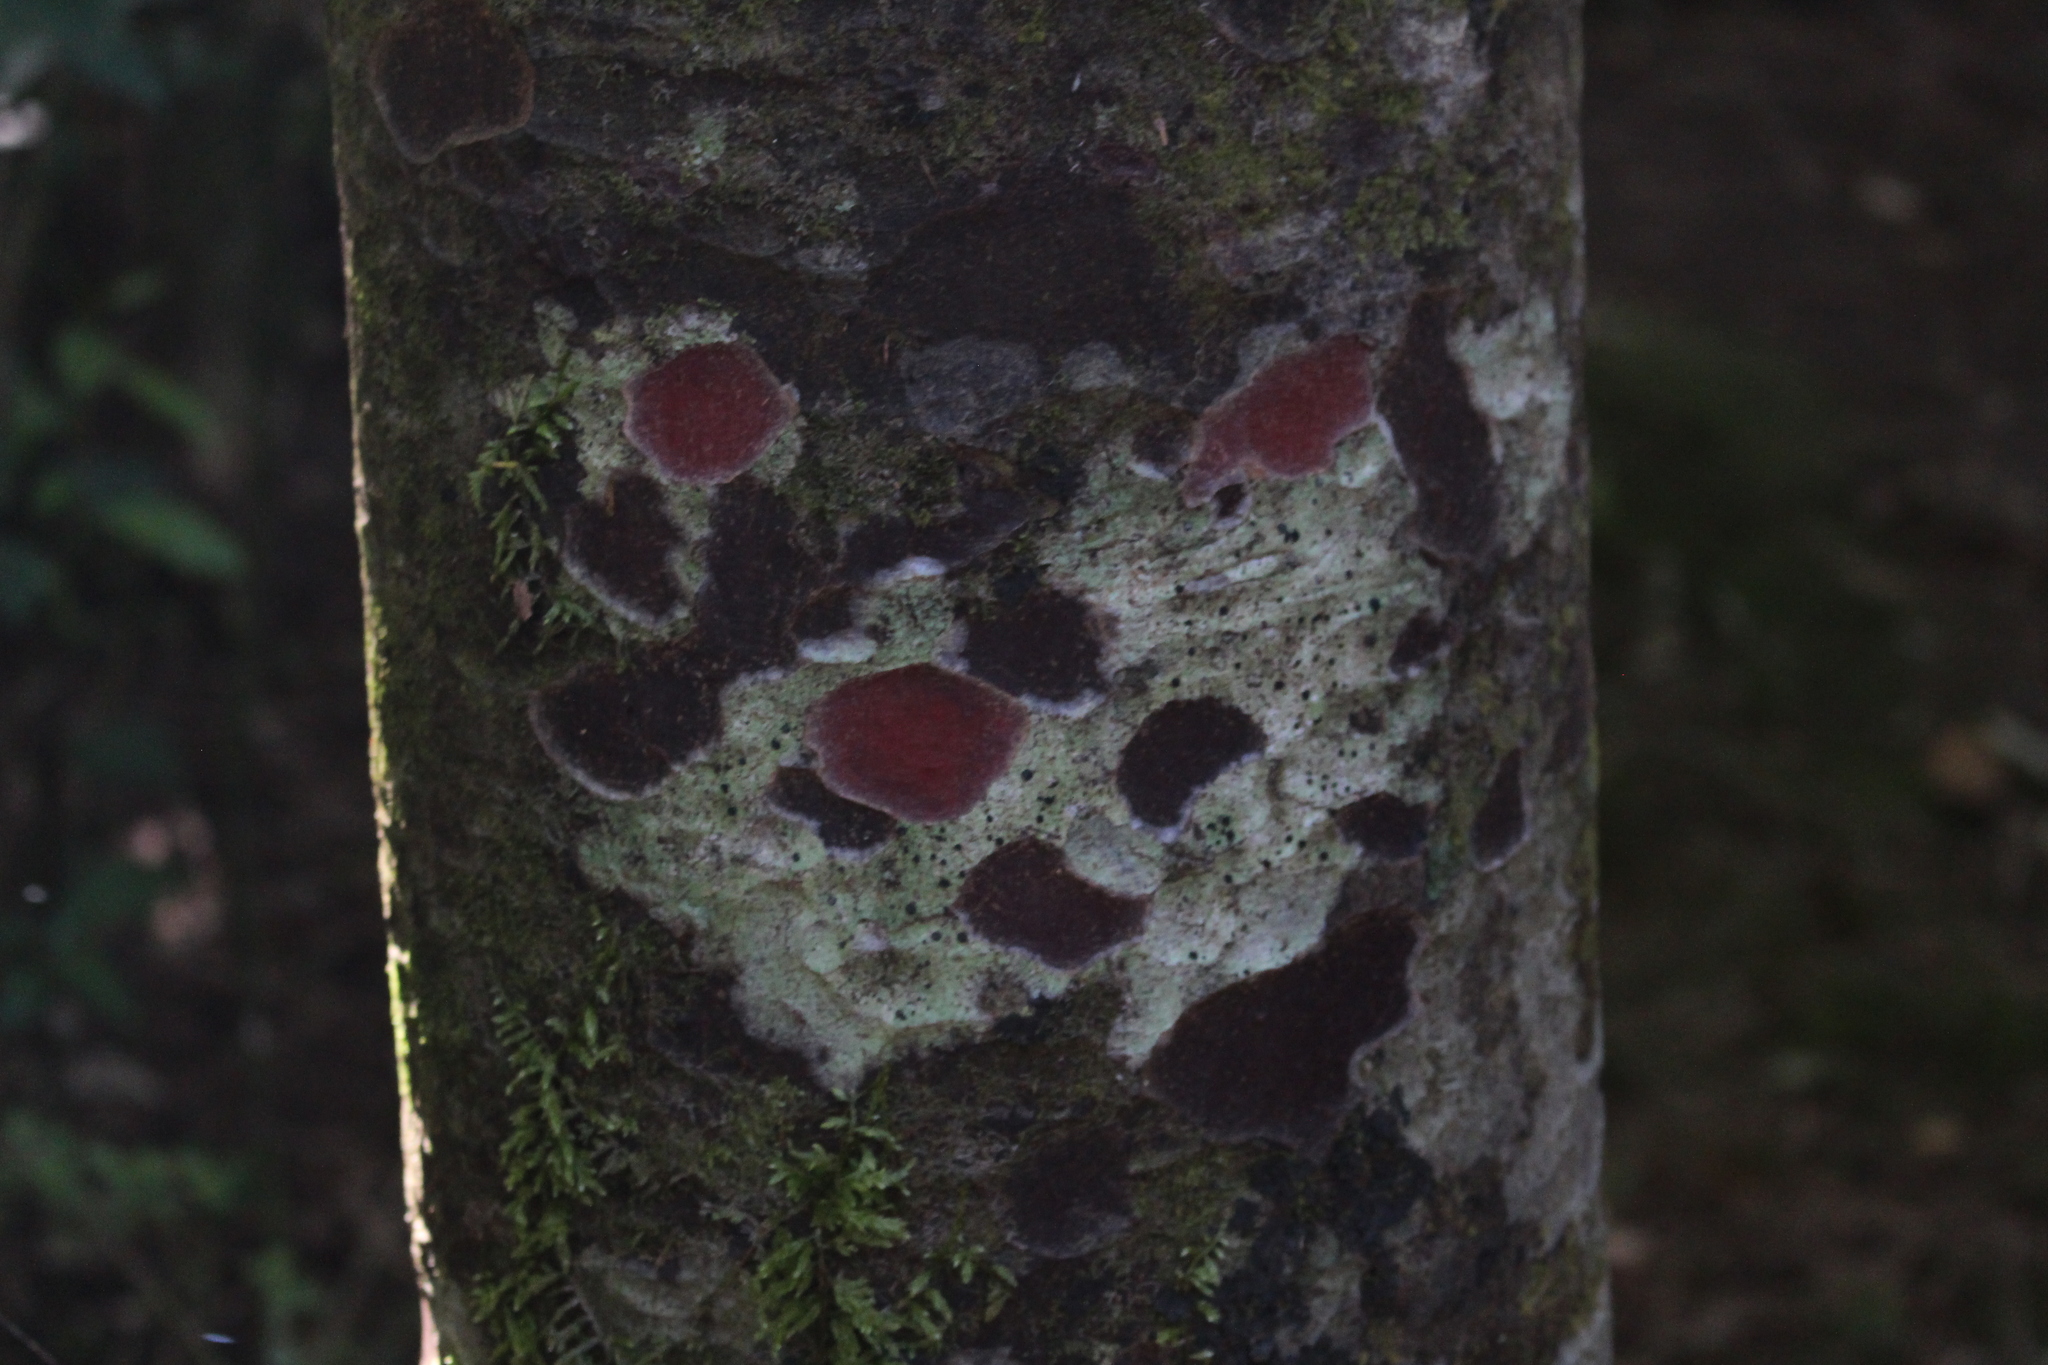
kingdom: Plantae
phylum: Tracheophyta
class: Pinopsida
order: Pinales
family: Podocarpaceae
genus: Prumnopitys
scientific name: Prumnopitys taxifolia
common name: Matai
